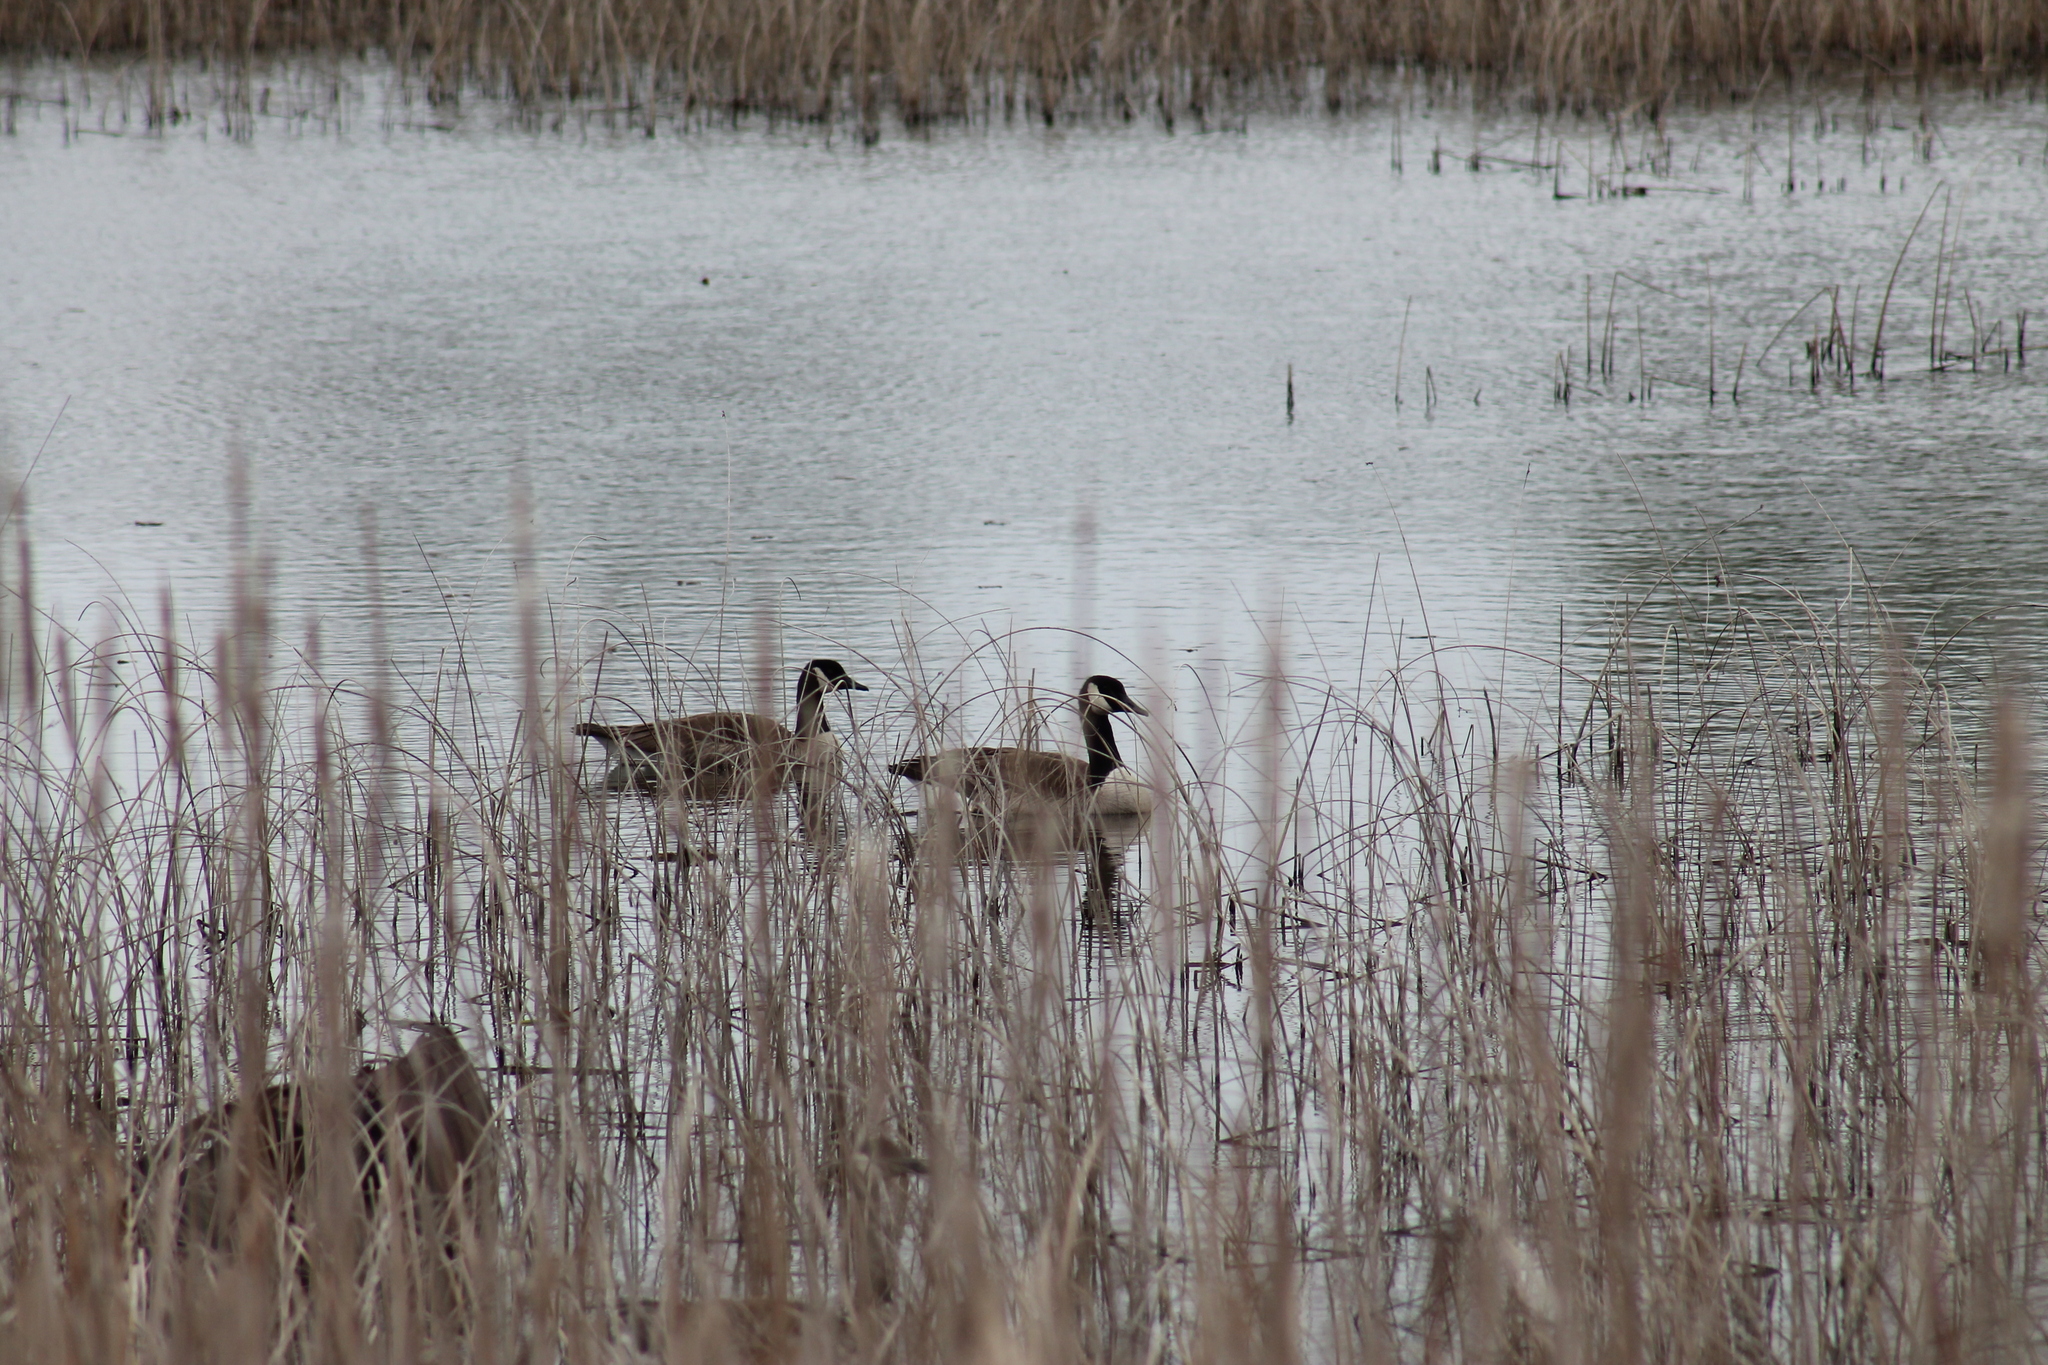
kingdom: Animalia
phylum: Chordata
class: Aves
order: Anseriformes
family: Anatidae
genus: Branta
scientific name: Branta canadensis
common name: Canada goose
